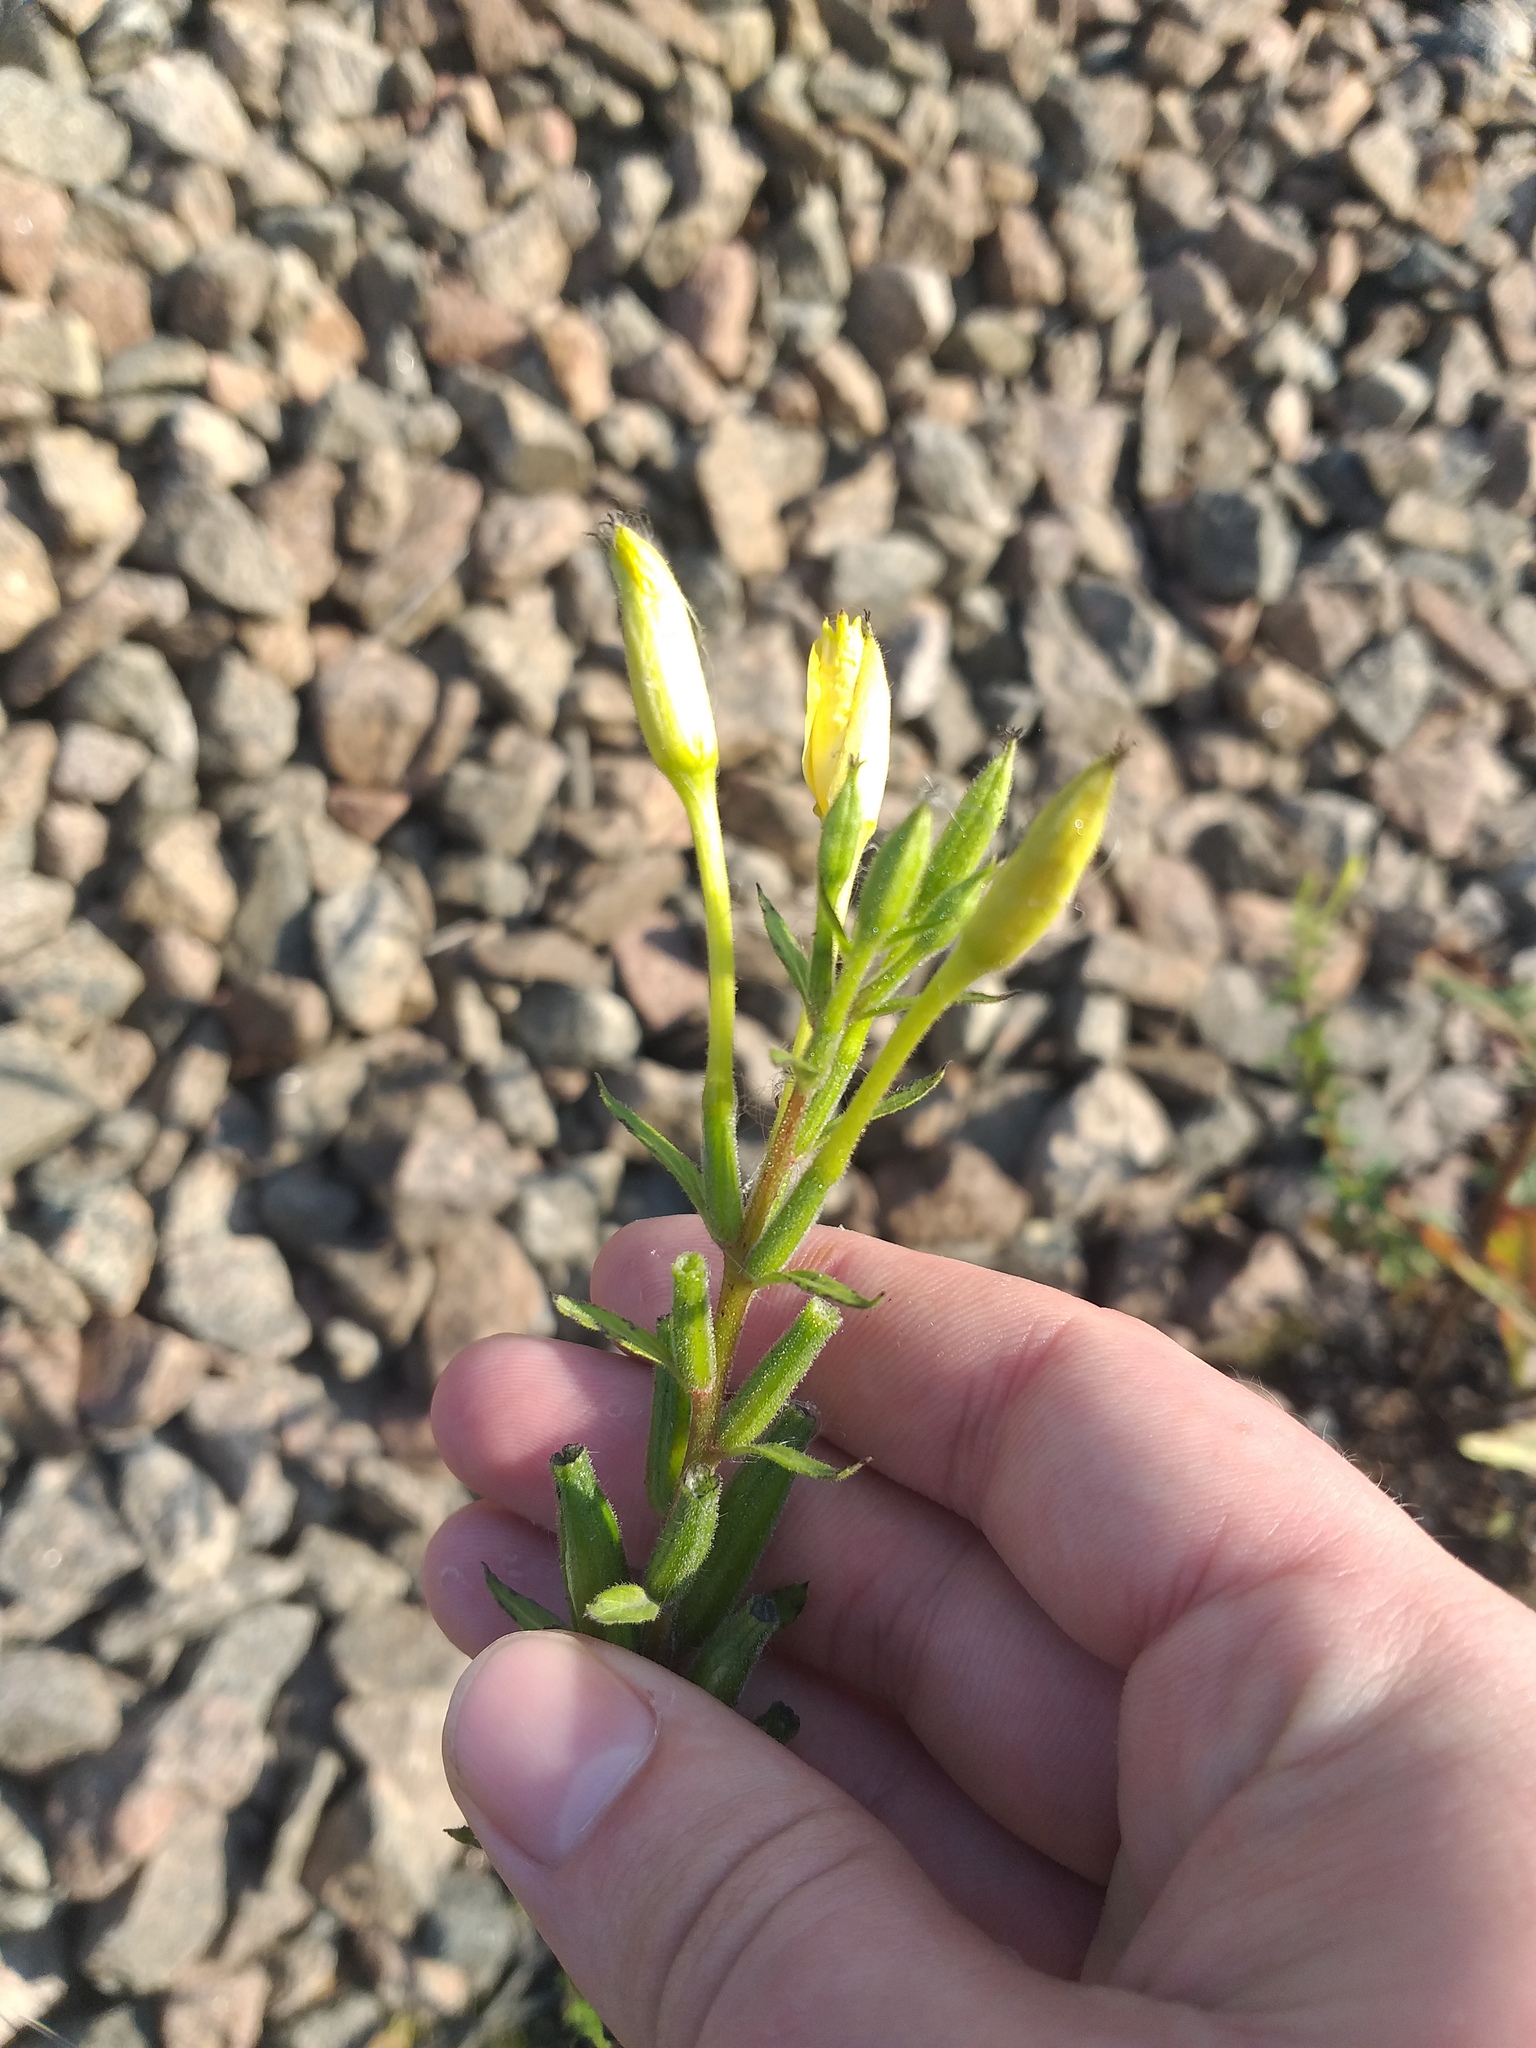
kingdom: Plantae
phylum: Tracheophyta
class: Magnoliopsida
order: Myrtales
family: Onagraceae
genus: Oenothera
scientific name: Oenothera rubricaulis
